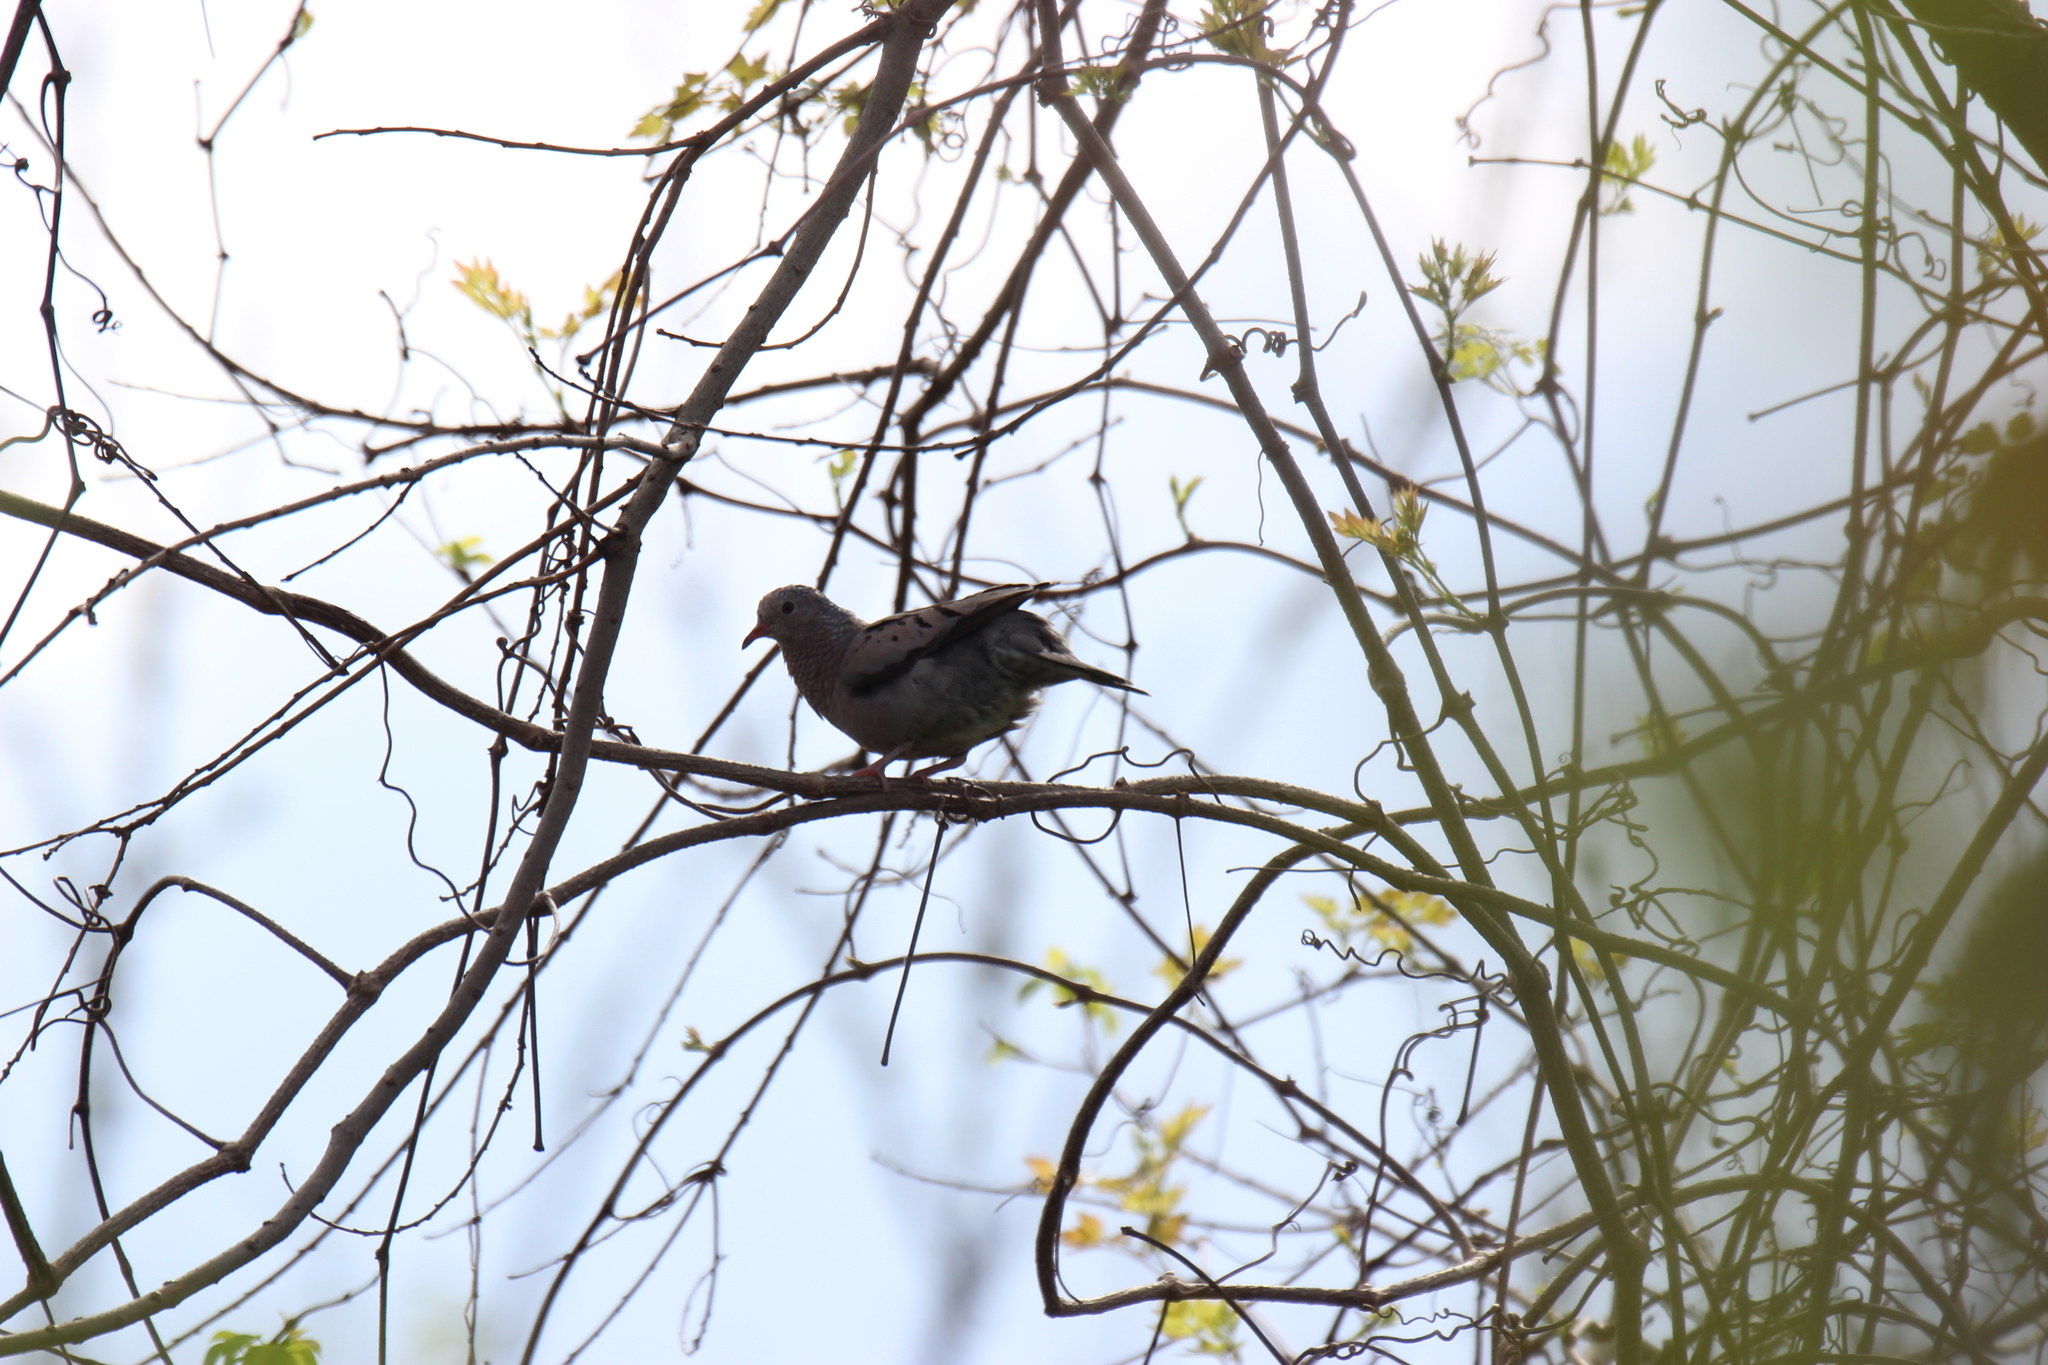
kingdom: Animalia
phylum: Chordata
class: Aves
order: Columbiformes
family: Columbidae
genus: Columbina
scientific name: Columbina passerina
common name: Common ground-dove
